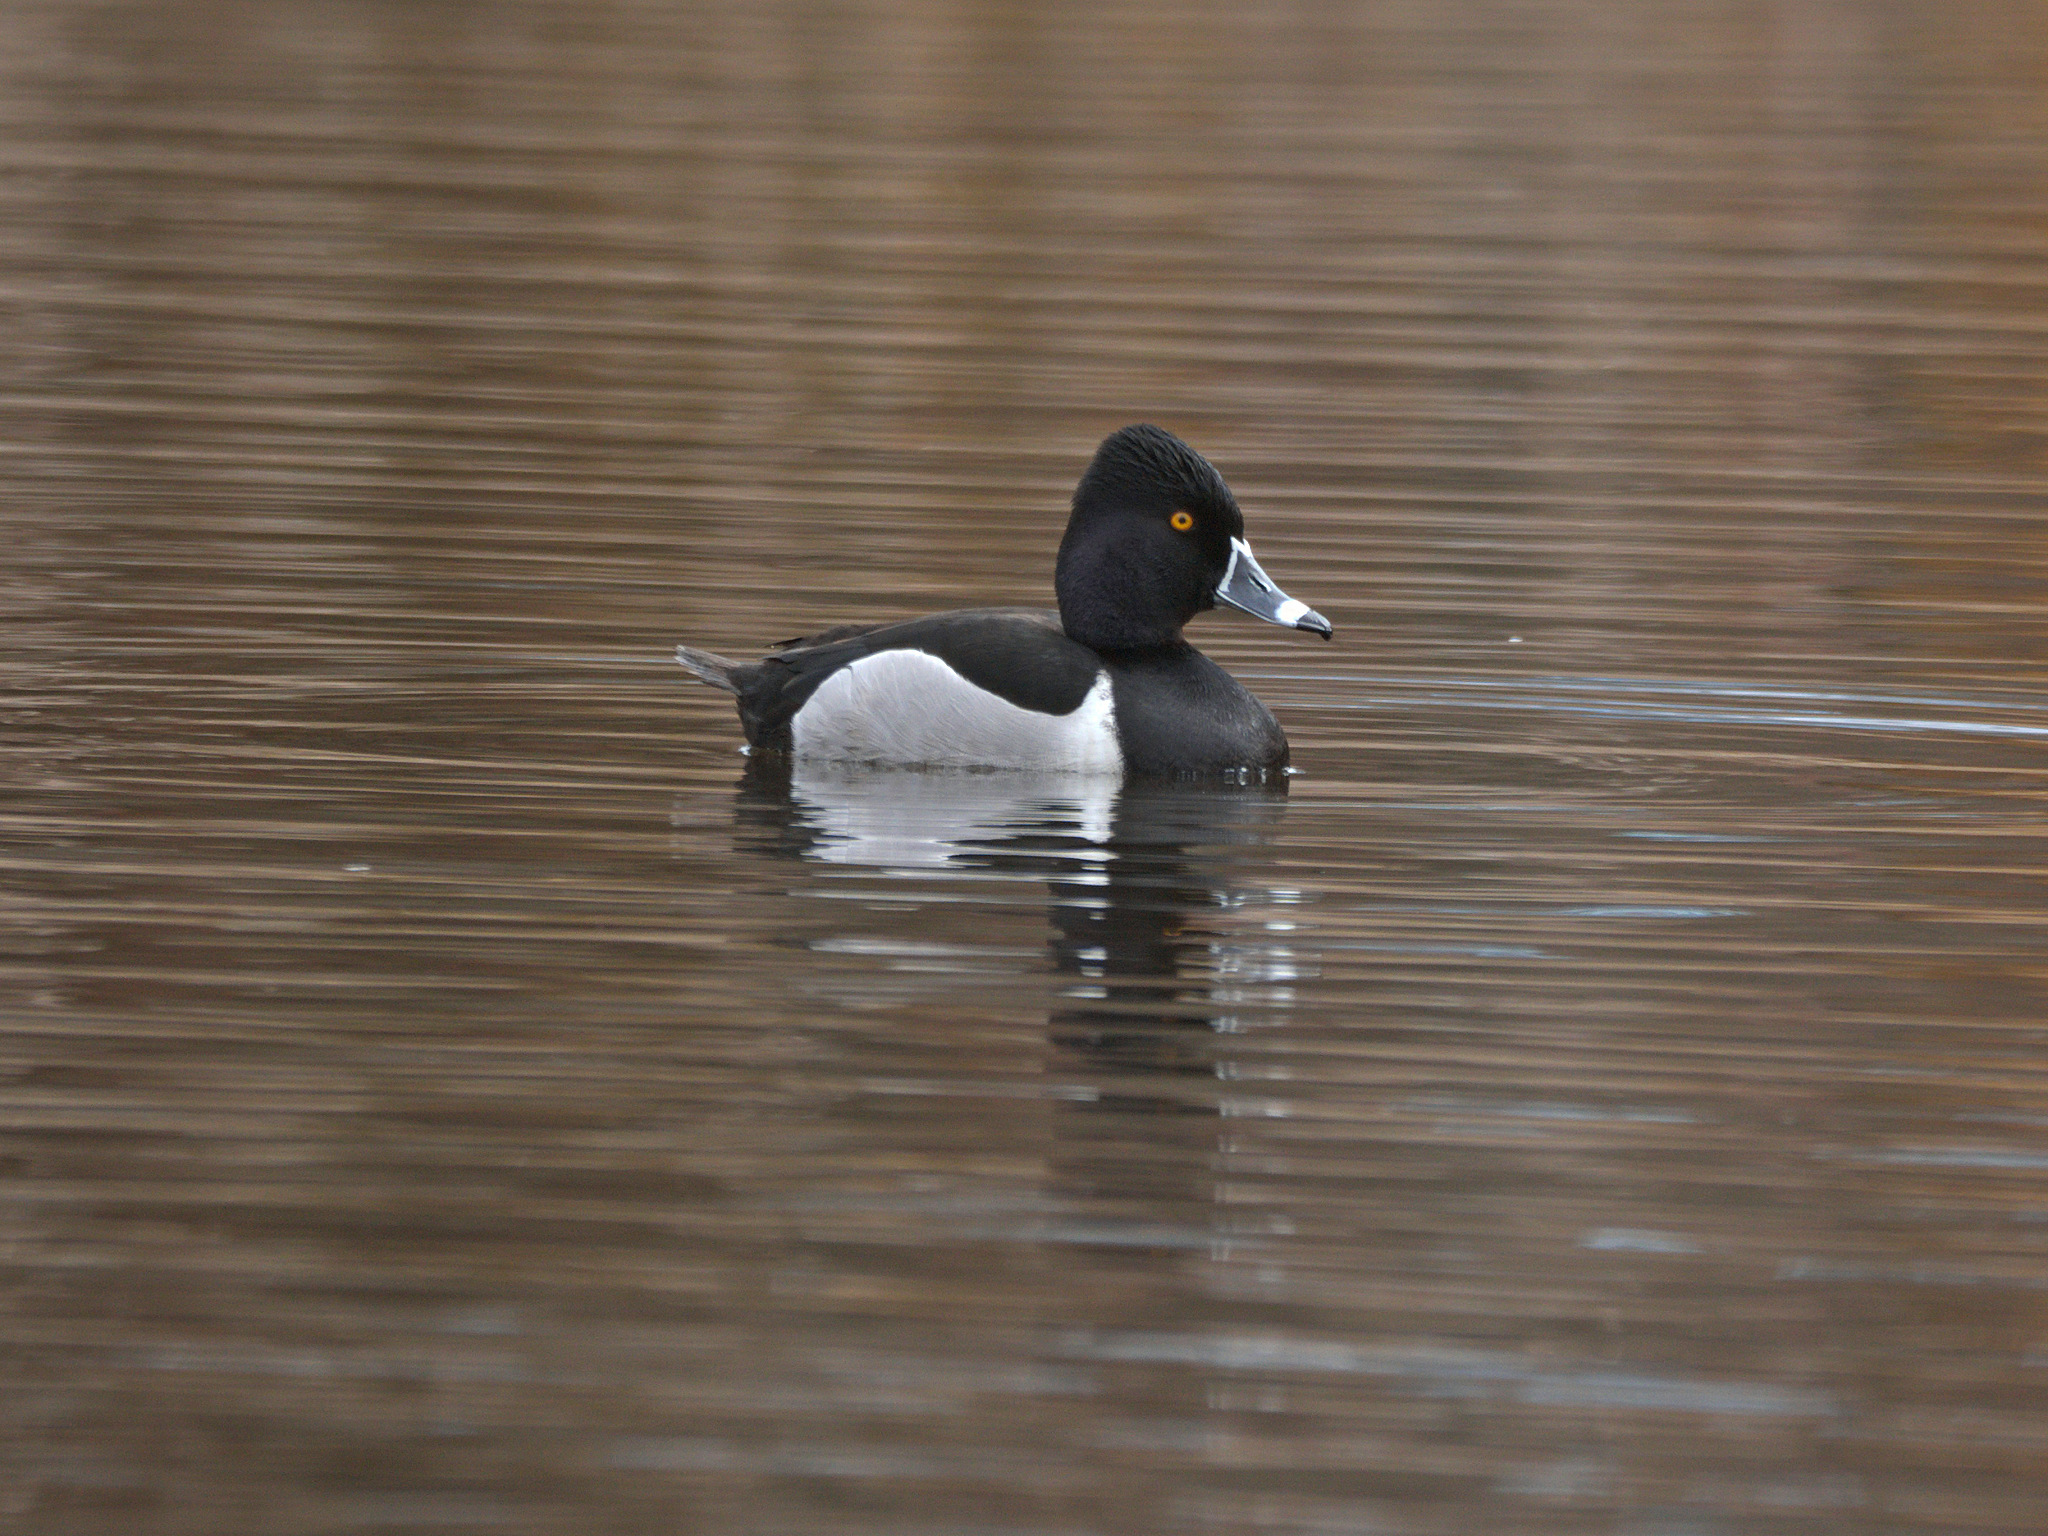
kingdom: Animalia
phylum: Chordata
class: Aves
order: Anseriformes
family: Anatidae
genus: Aythya
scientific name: Aythya collaris
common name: Ring-necked duck
